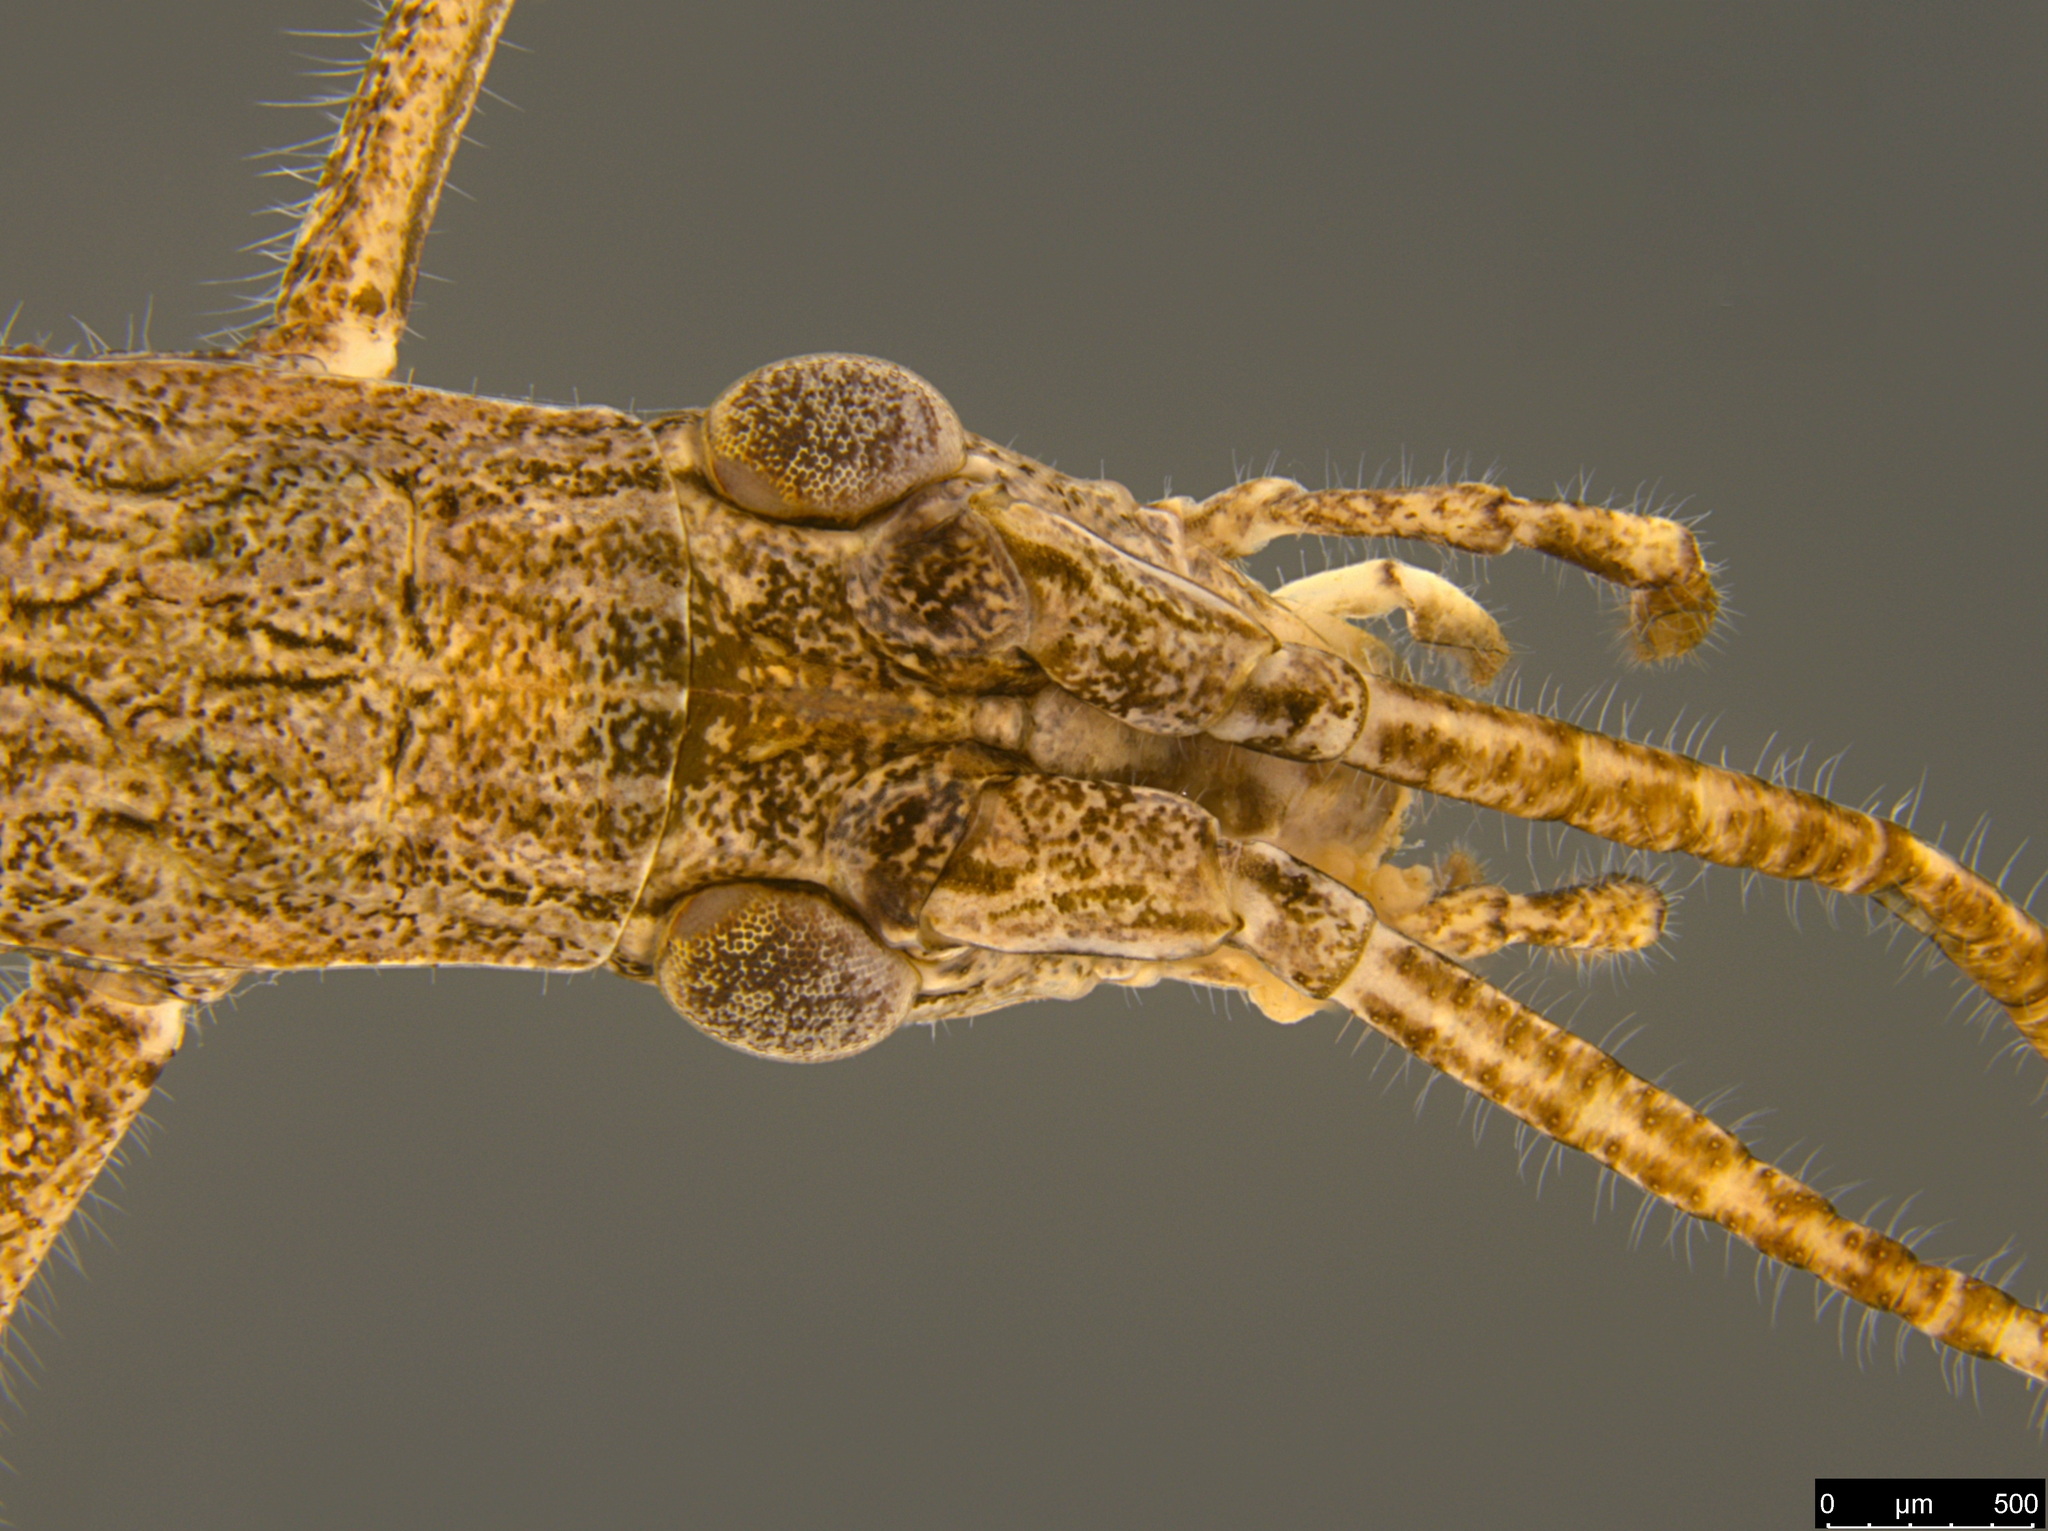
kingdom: Animalia
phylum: Arthropoda
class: Insecta
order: Orthoptera
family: Tettigoniidae
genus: Zaprochilus
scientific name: Zaprochilus australis
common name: Australian twig-mimicking katydid
